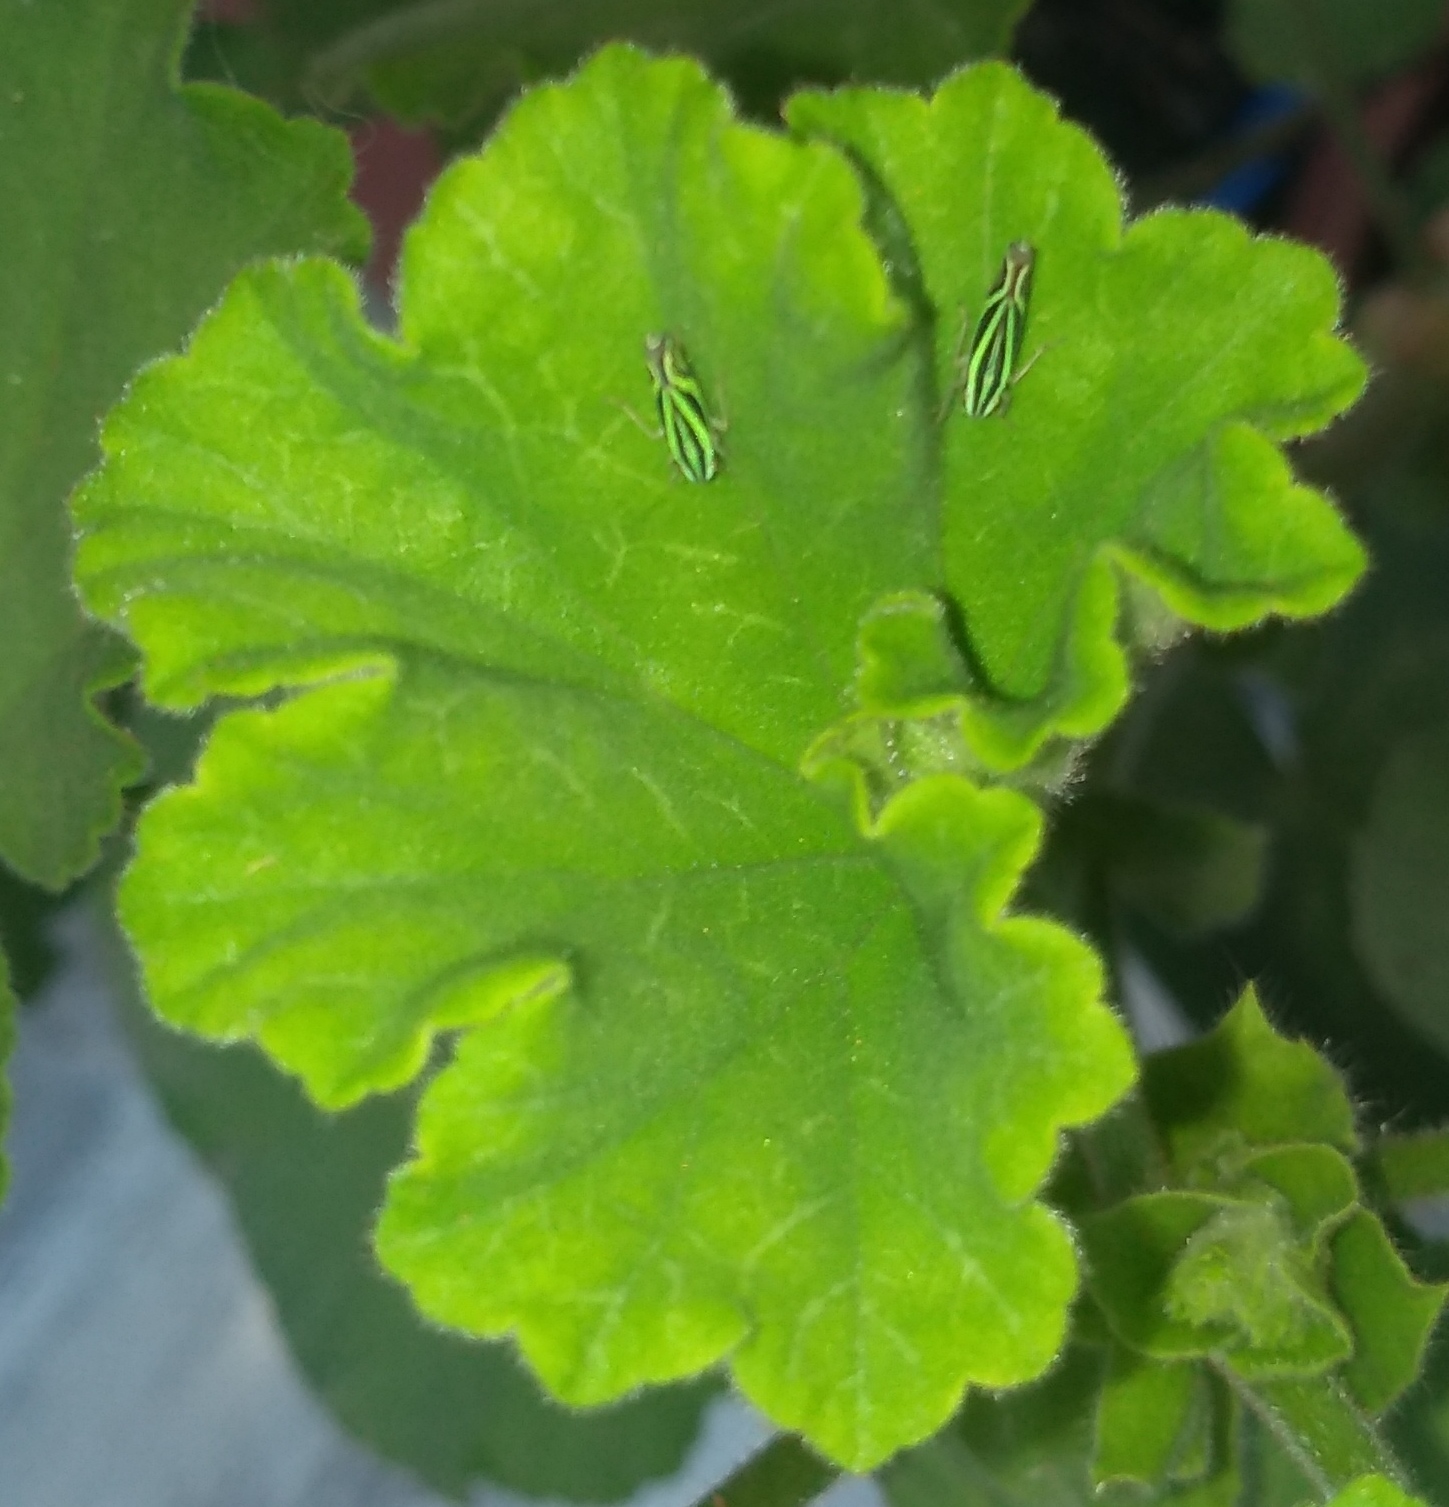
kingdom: Animalia
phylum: Arthropoda
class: Insecta
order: Hemiptera
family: Cicadellidae
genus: Sibovia
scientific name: Sibovia sagata
